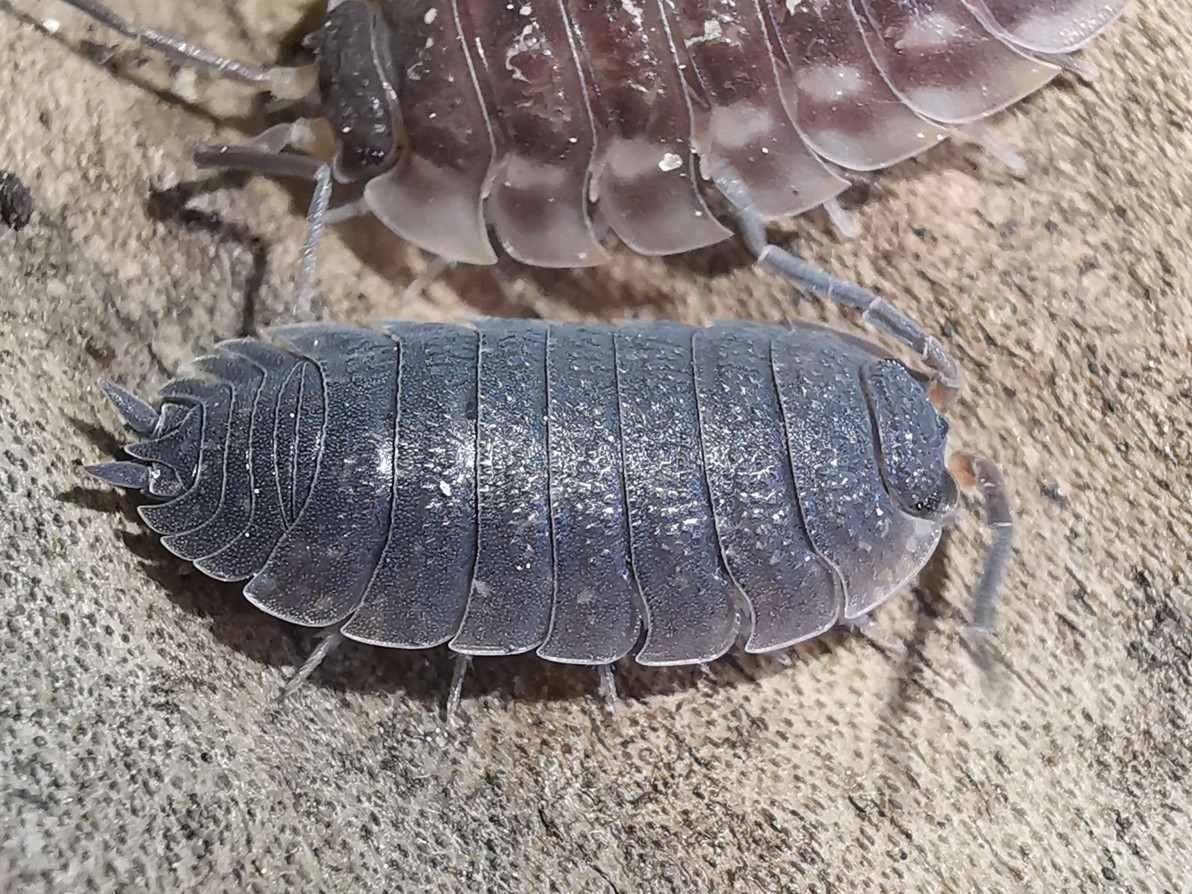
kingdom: Animalia
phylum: Arthropoda
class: Malacostraca
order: Isopoda
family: Porcellionidae
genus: Porcellio
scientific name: Porcellio scaber
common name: Common rough woodlouse
